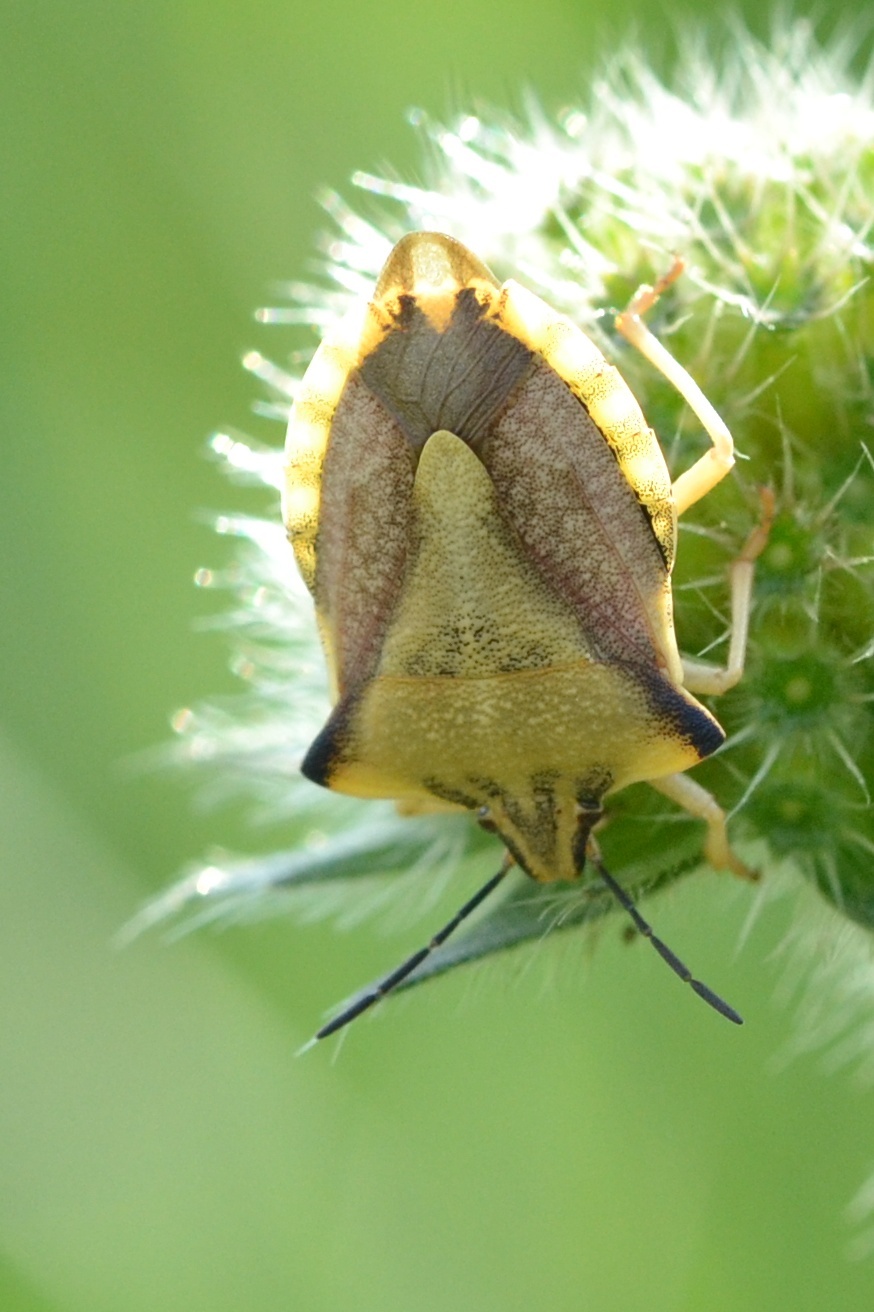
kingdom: Animalia
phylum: Arthropoda
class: Insecta
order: Hemiptera
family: Pentatomidae
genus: Carpocoris
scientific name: Carpocoris fuscispinus
